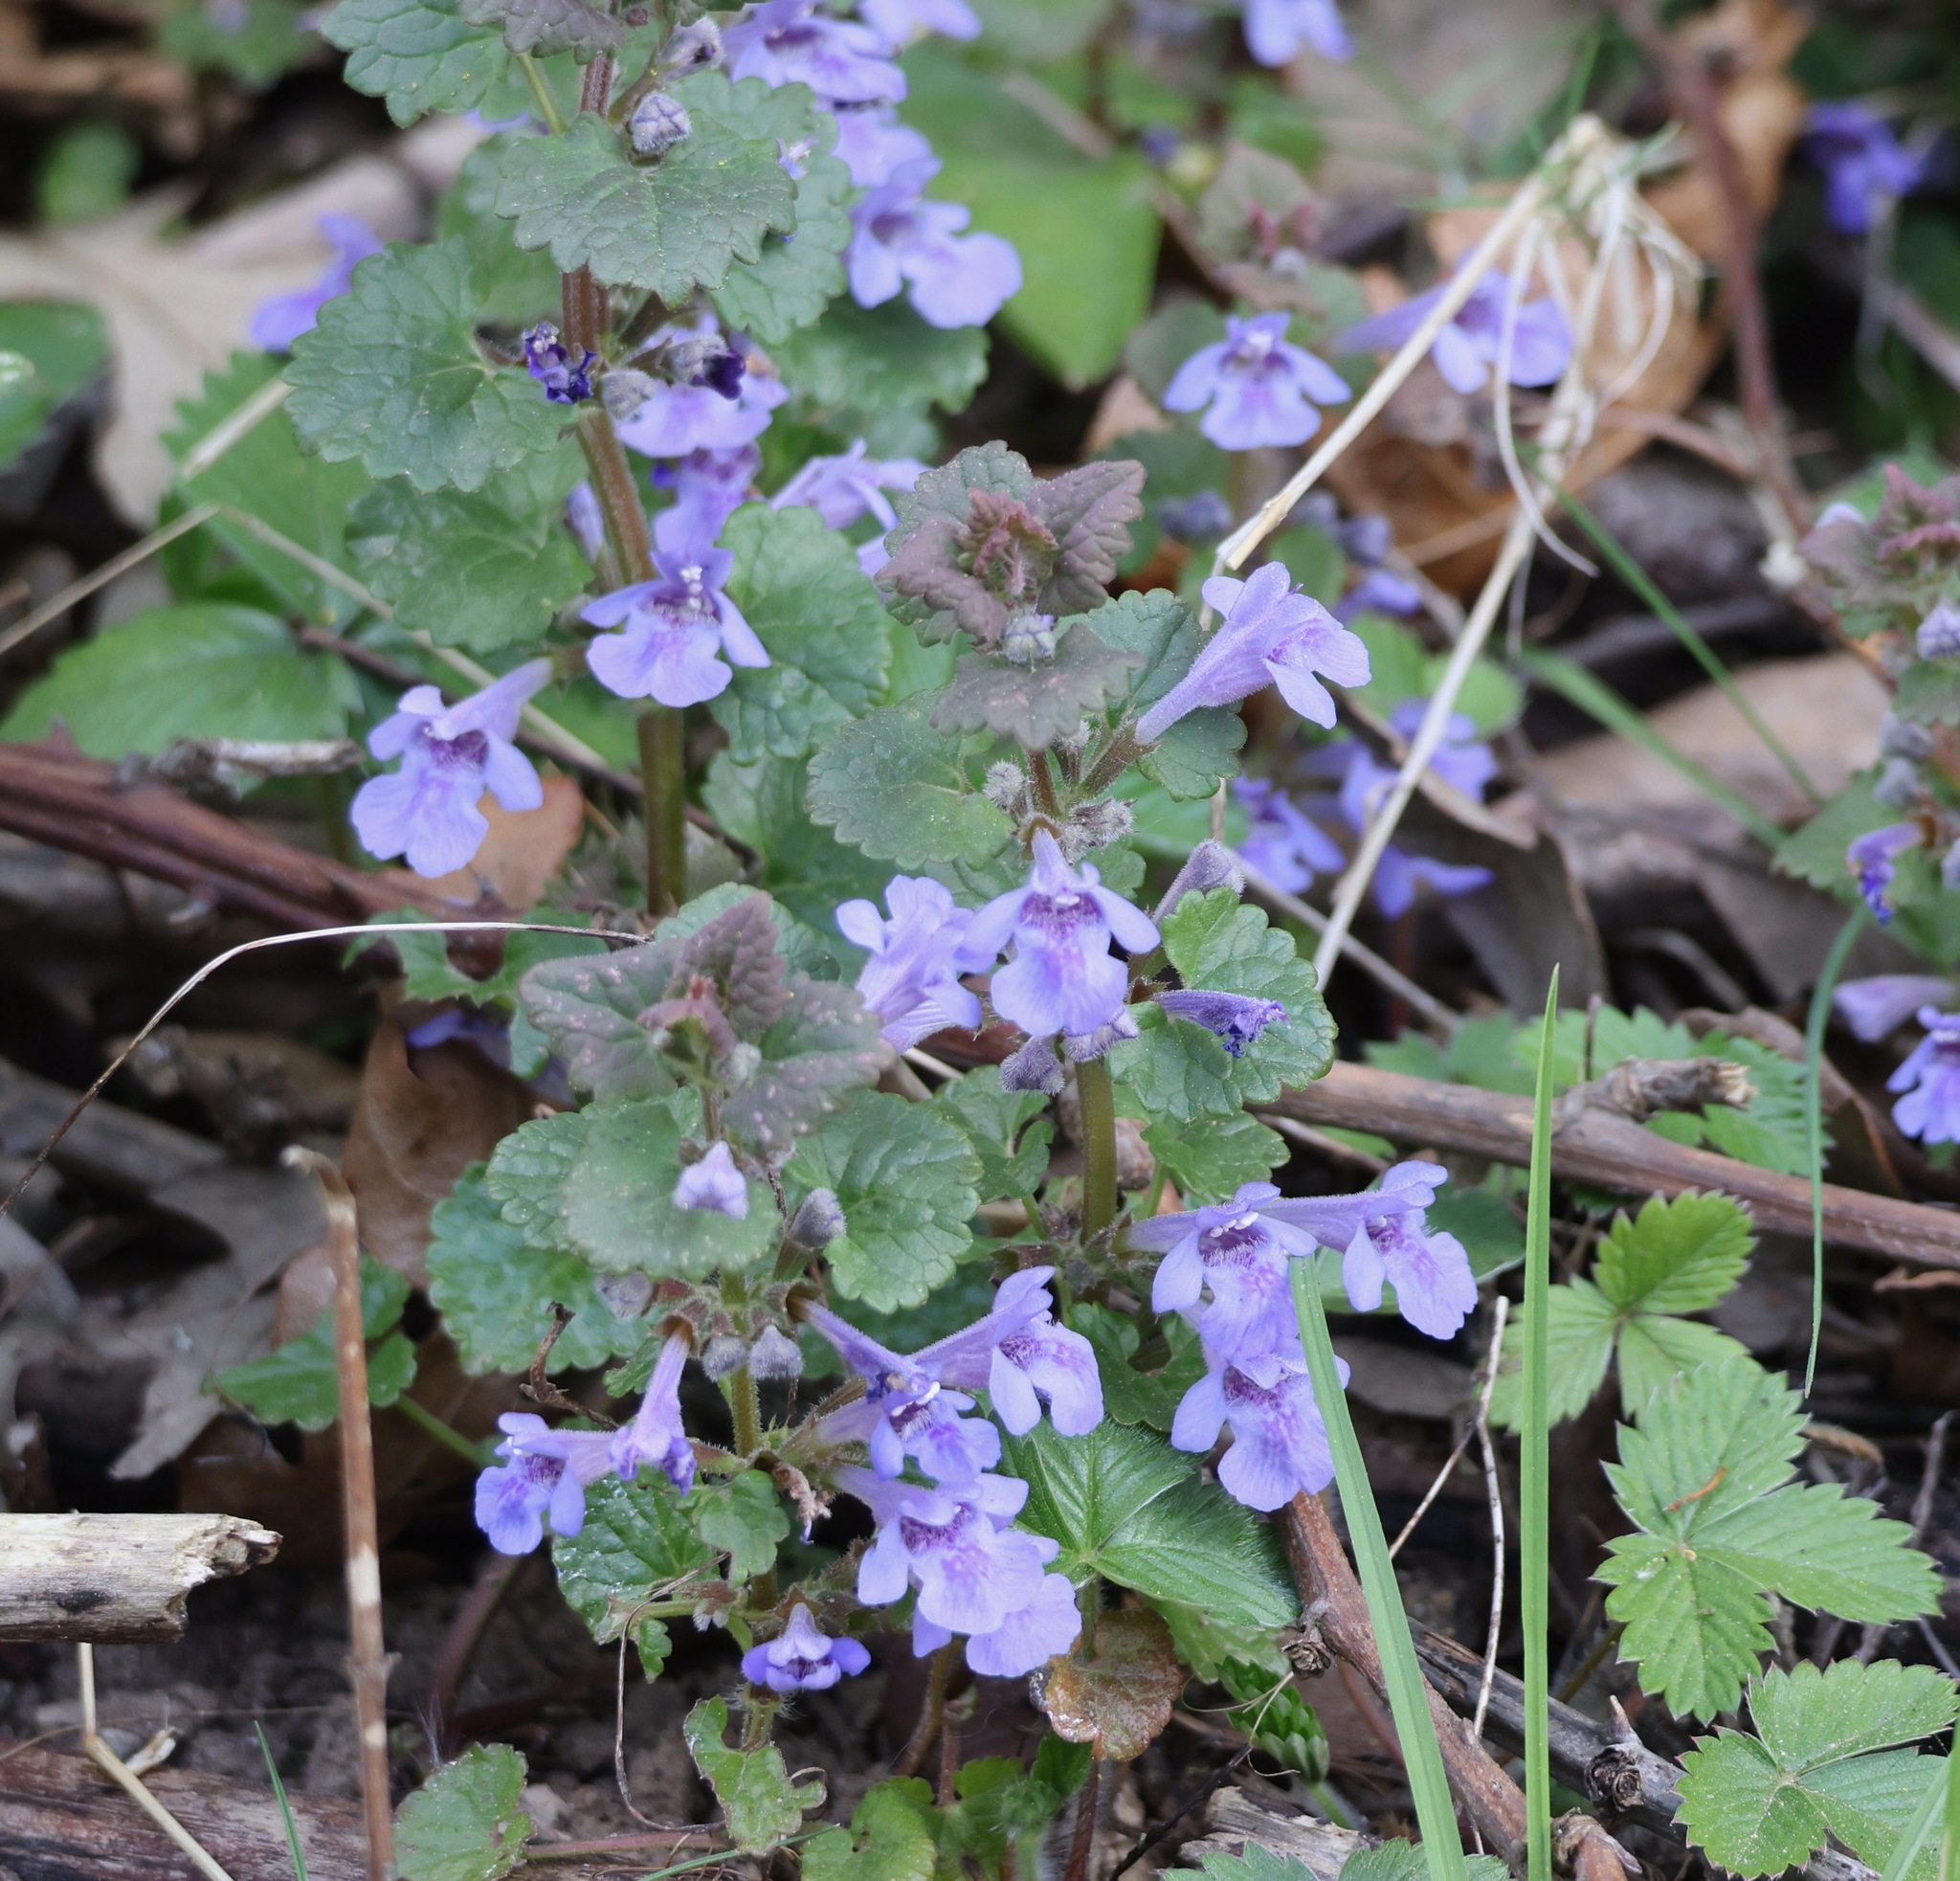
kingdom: Plantae
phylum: Tracheophyta
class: Magnoliopsida
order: Lamiales
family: Lamiaceae
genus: Glechoma
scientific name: Glechoma hederacea
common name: Ground ivy
